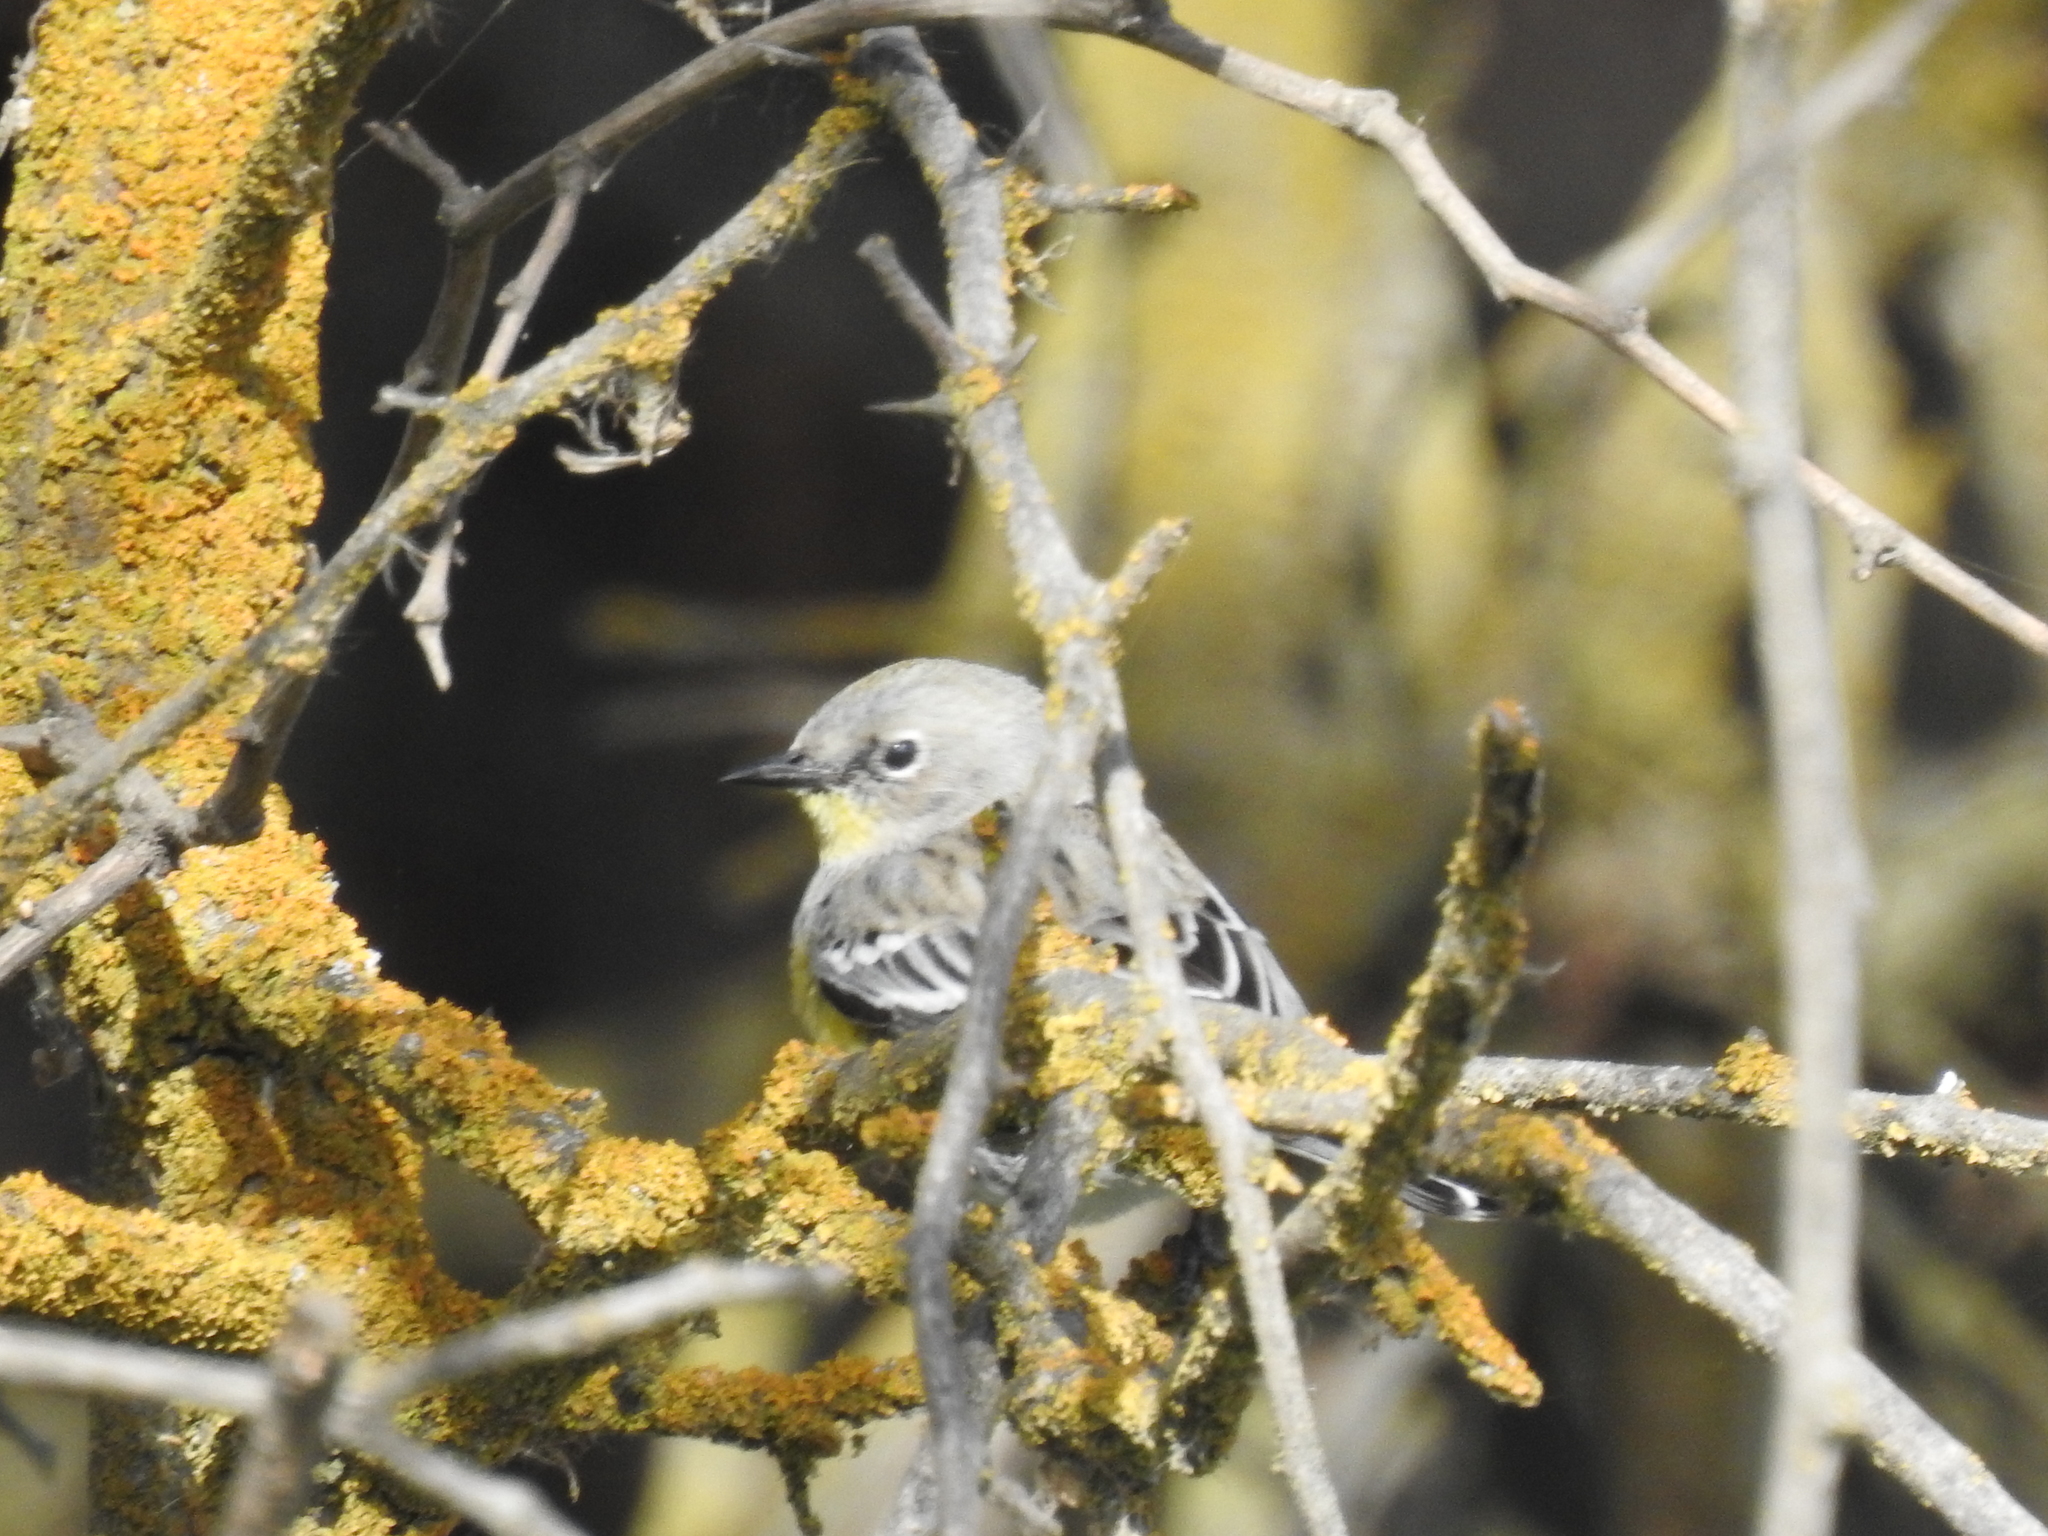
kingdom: Animalia
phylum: Chordata
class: Aves
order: Passeriformes
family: Parulidae
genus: Setophaga
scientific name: Setophaga auduboni
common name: Audubon's warbler
